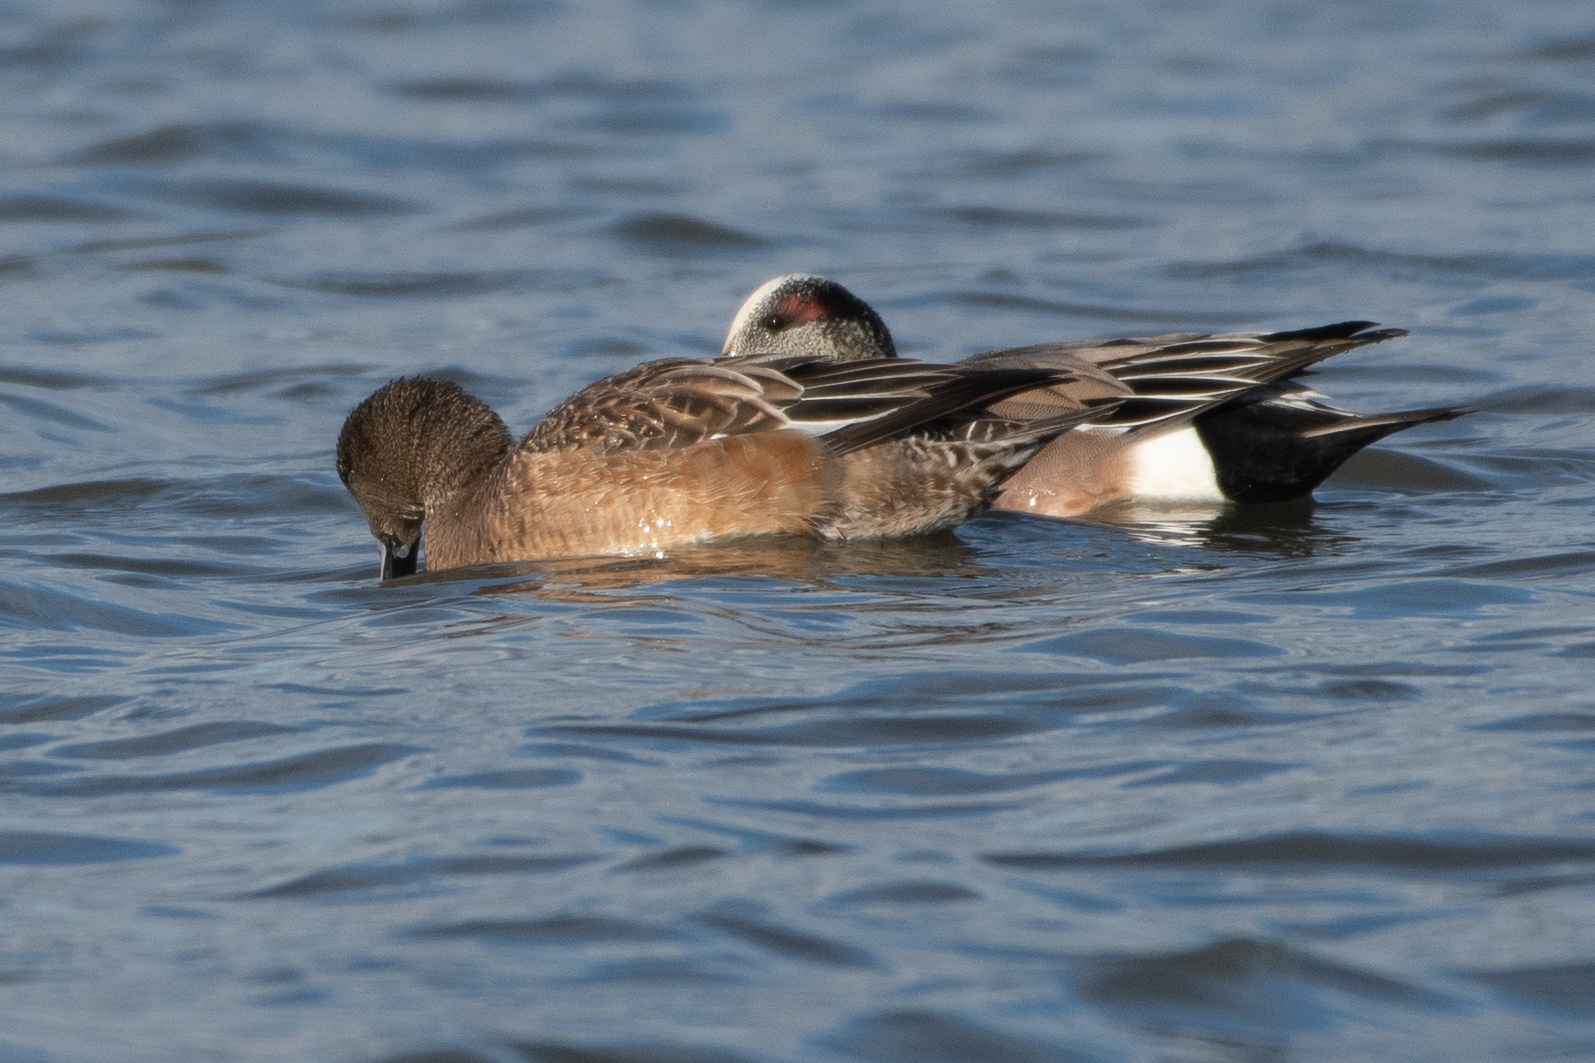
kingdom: Animalia
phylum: Chordata
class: Aves
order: Anseriformes
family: Anatidae
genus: Mareca
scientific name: Mareca americana
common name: American wigeon
